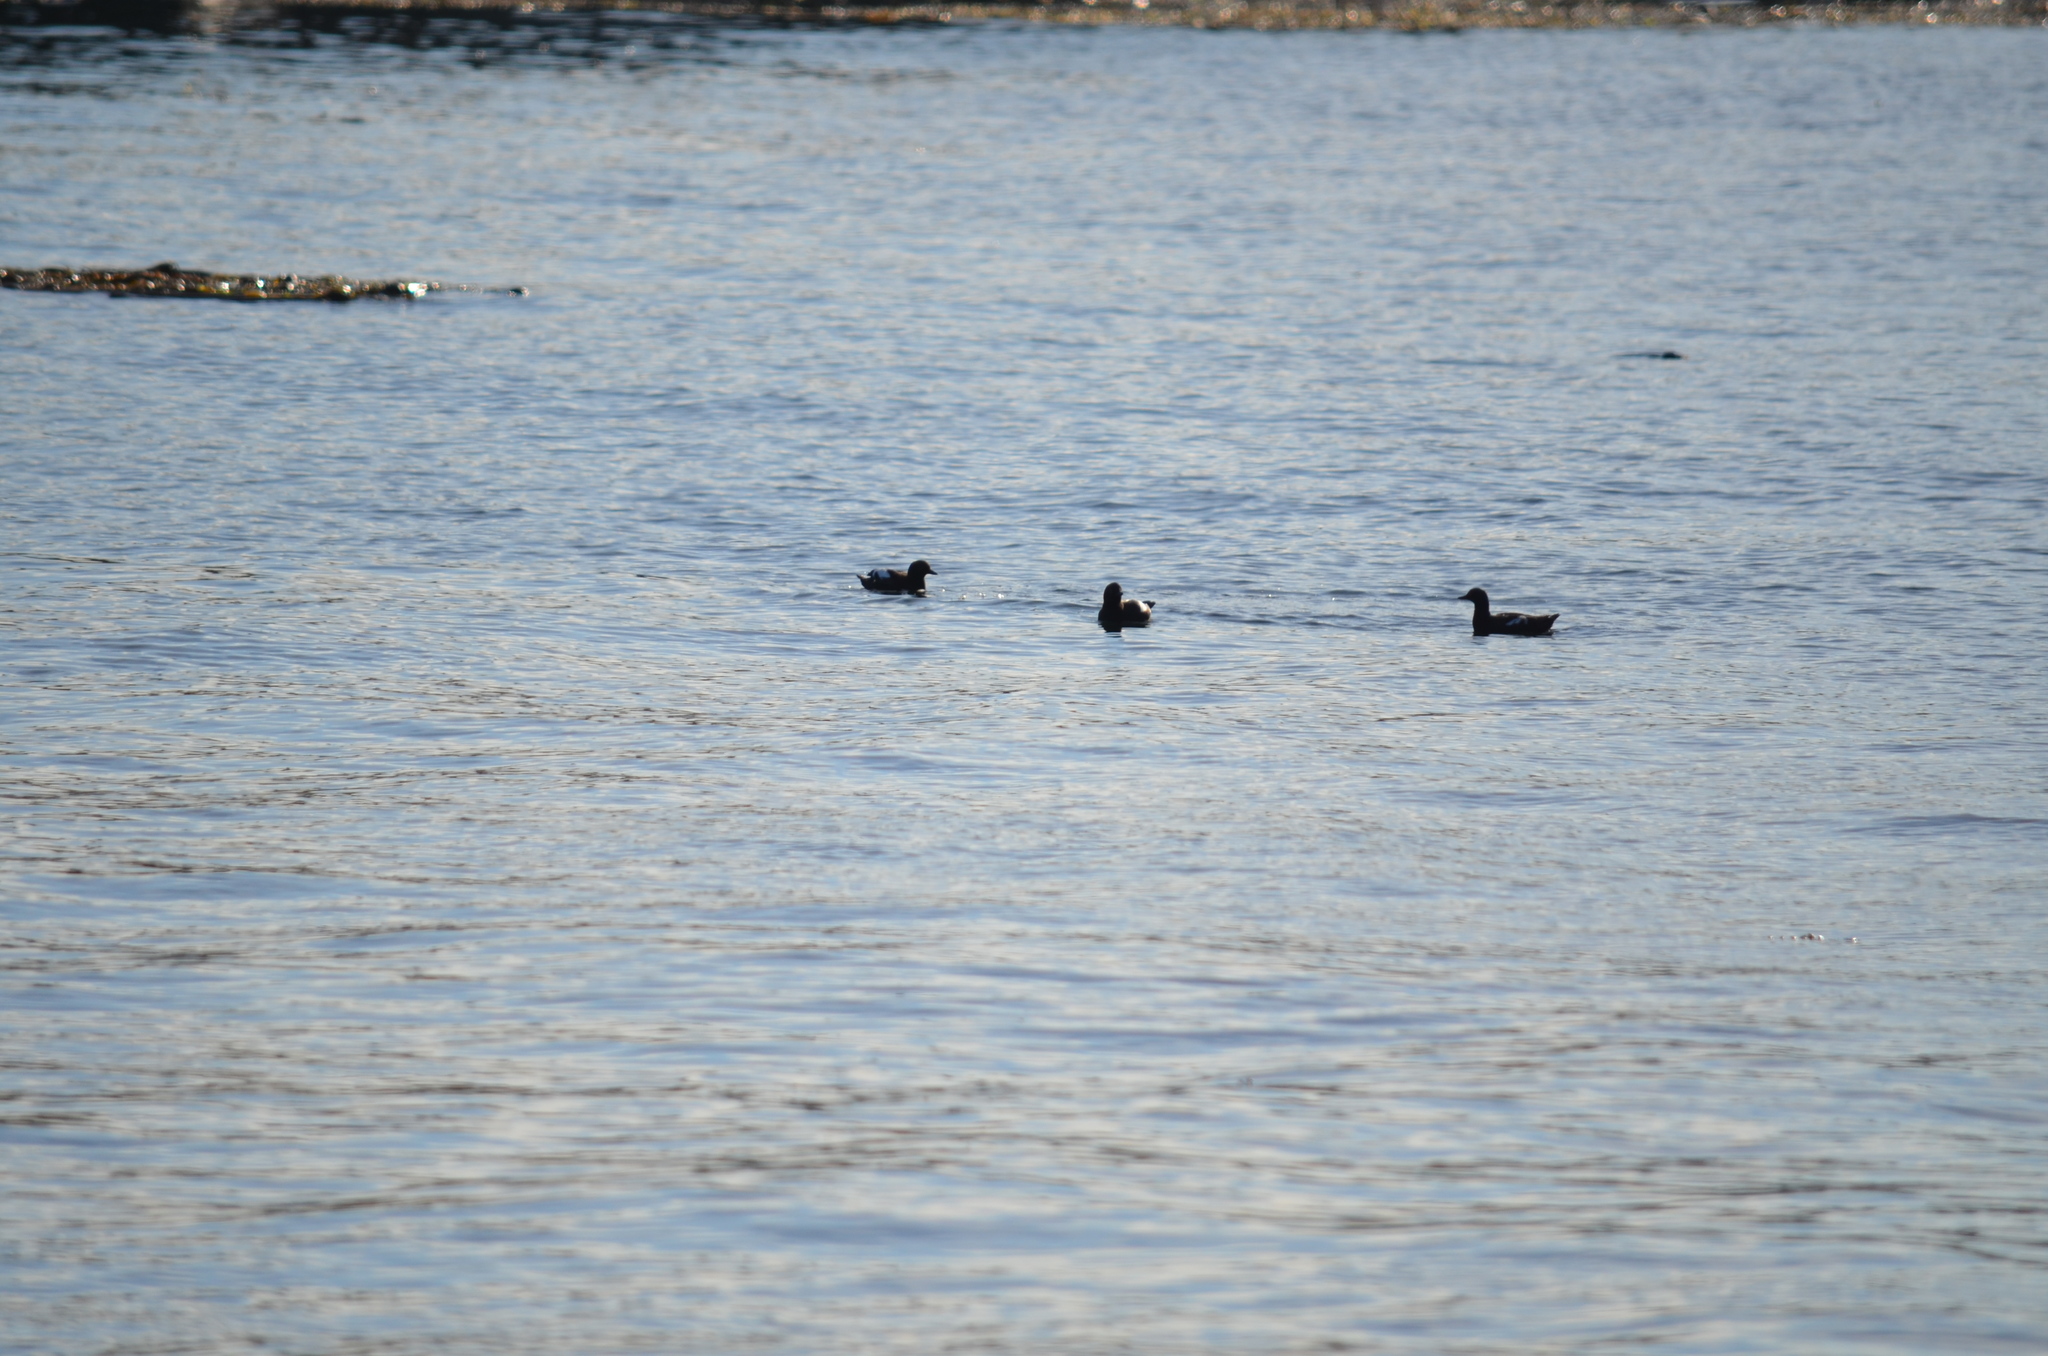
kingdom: Animalia
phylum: Chordata
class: Aves
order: Charadriiformes
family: Alcidae
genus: Cepphus
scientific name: Cepphus columba
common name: Pigeon guillemot
